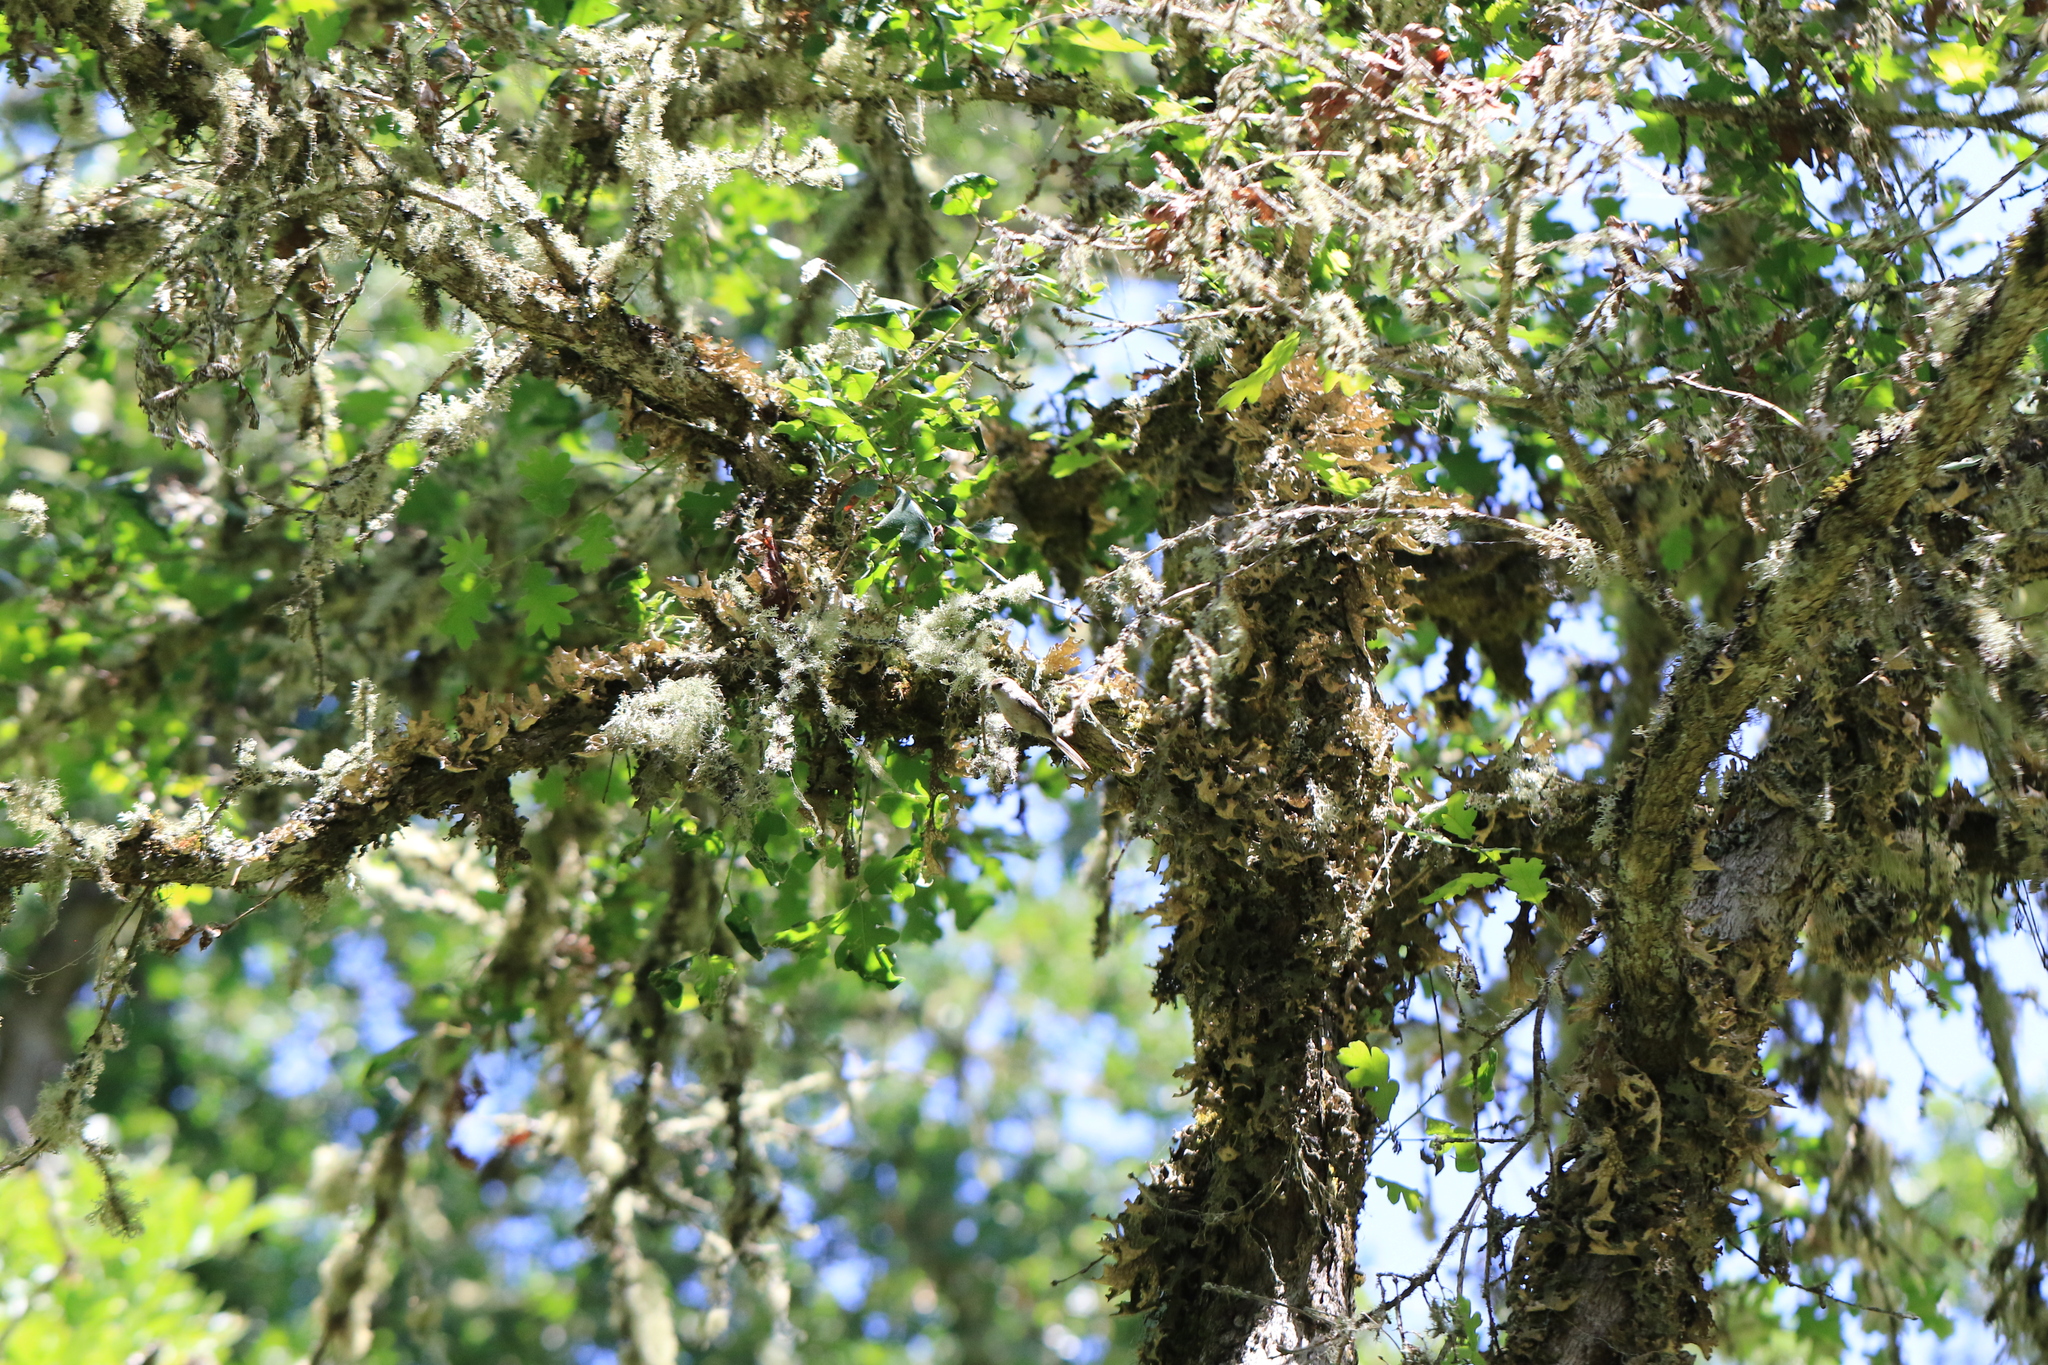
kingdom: Animalia
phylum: Chordata
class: Aves
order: Passeriformes
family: Aegithalidae
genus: Psaltriparus
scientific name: Psaltriparus minimus
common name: American bushtit
